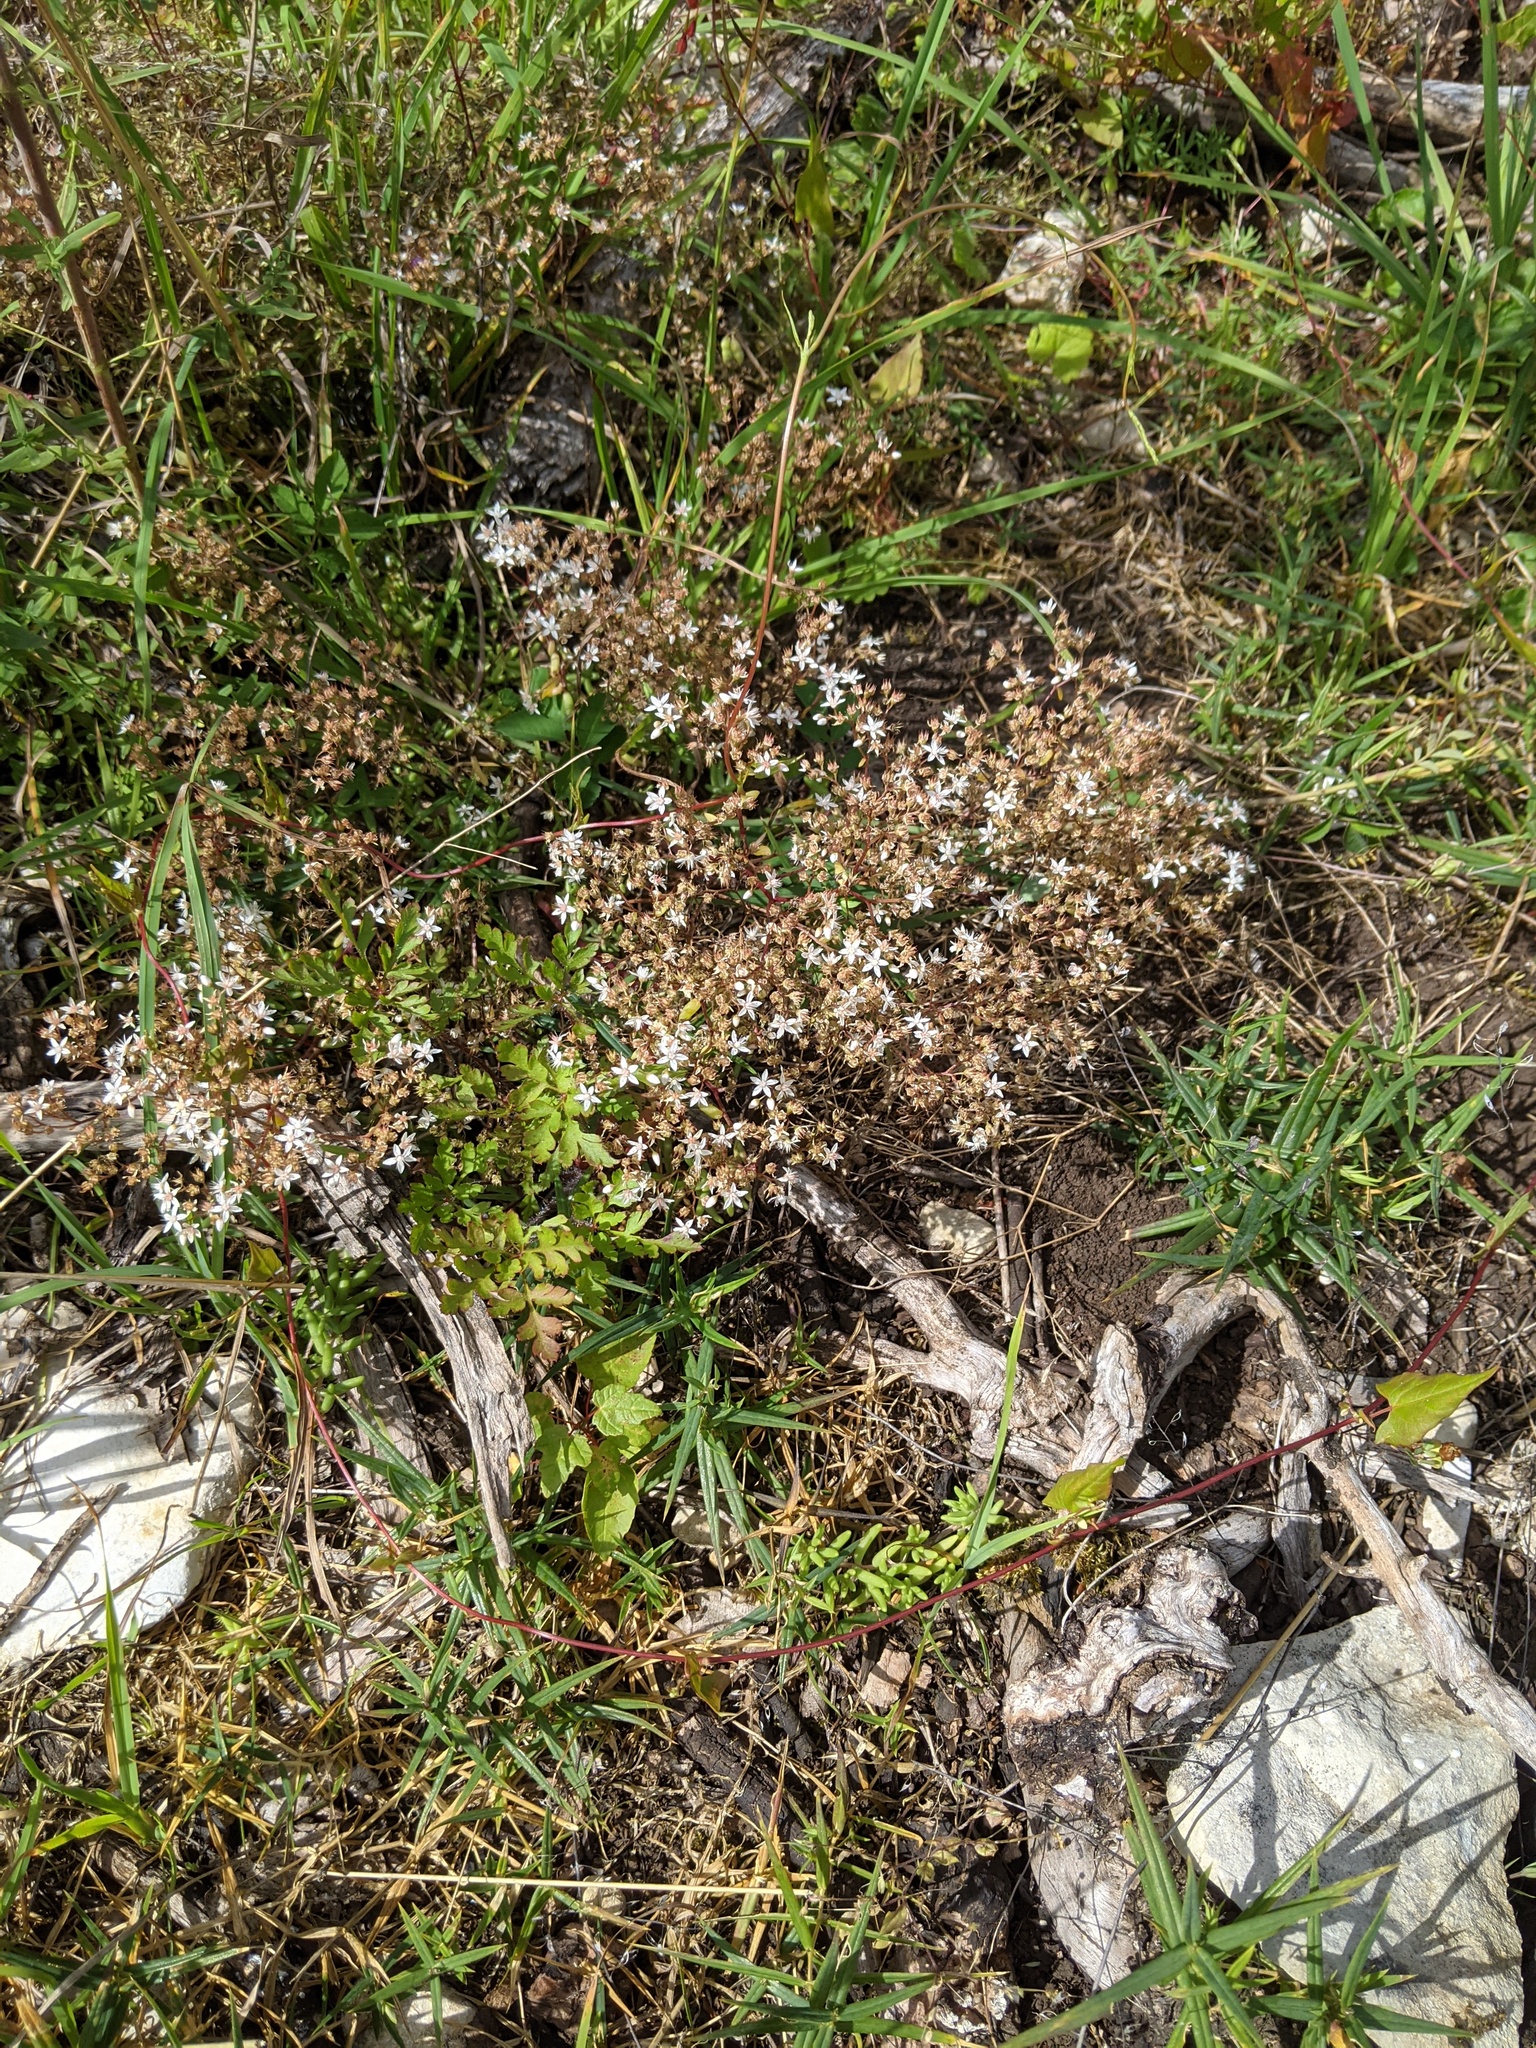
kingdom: Plantae
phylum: Tracheophyta
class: Magnoliopsida
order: Saxifragales
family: Crassulaceae
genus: Sedum
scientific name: Sedum album
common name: White stonecrop
